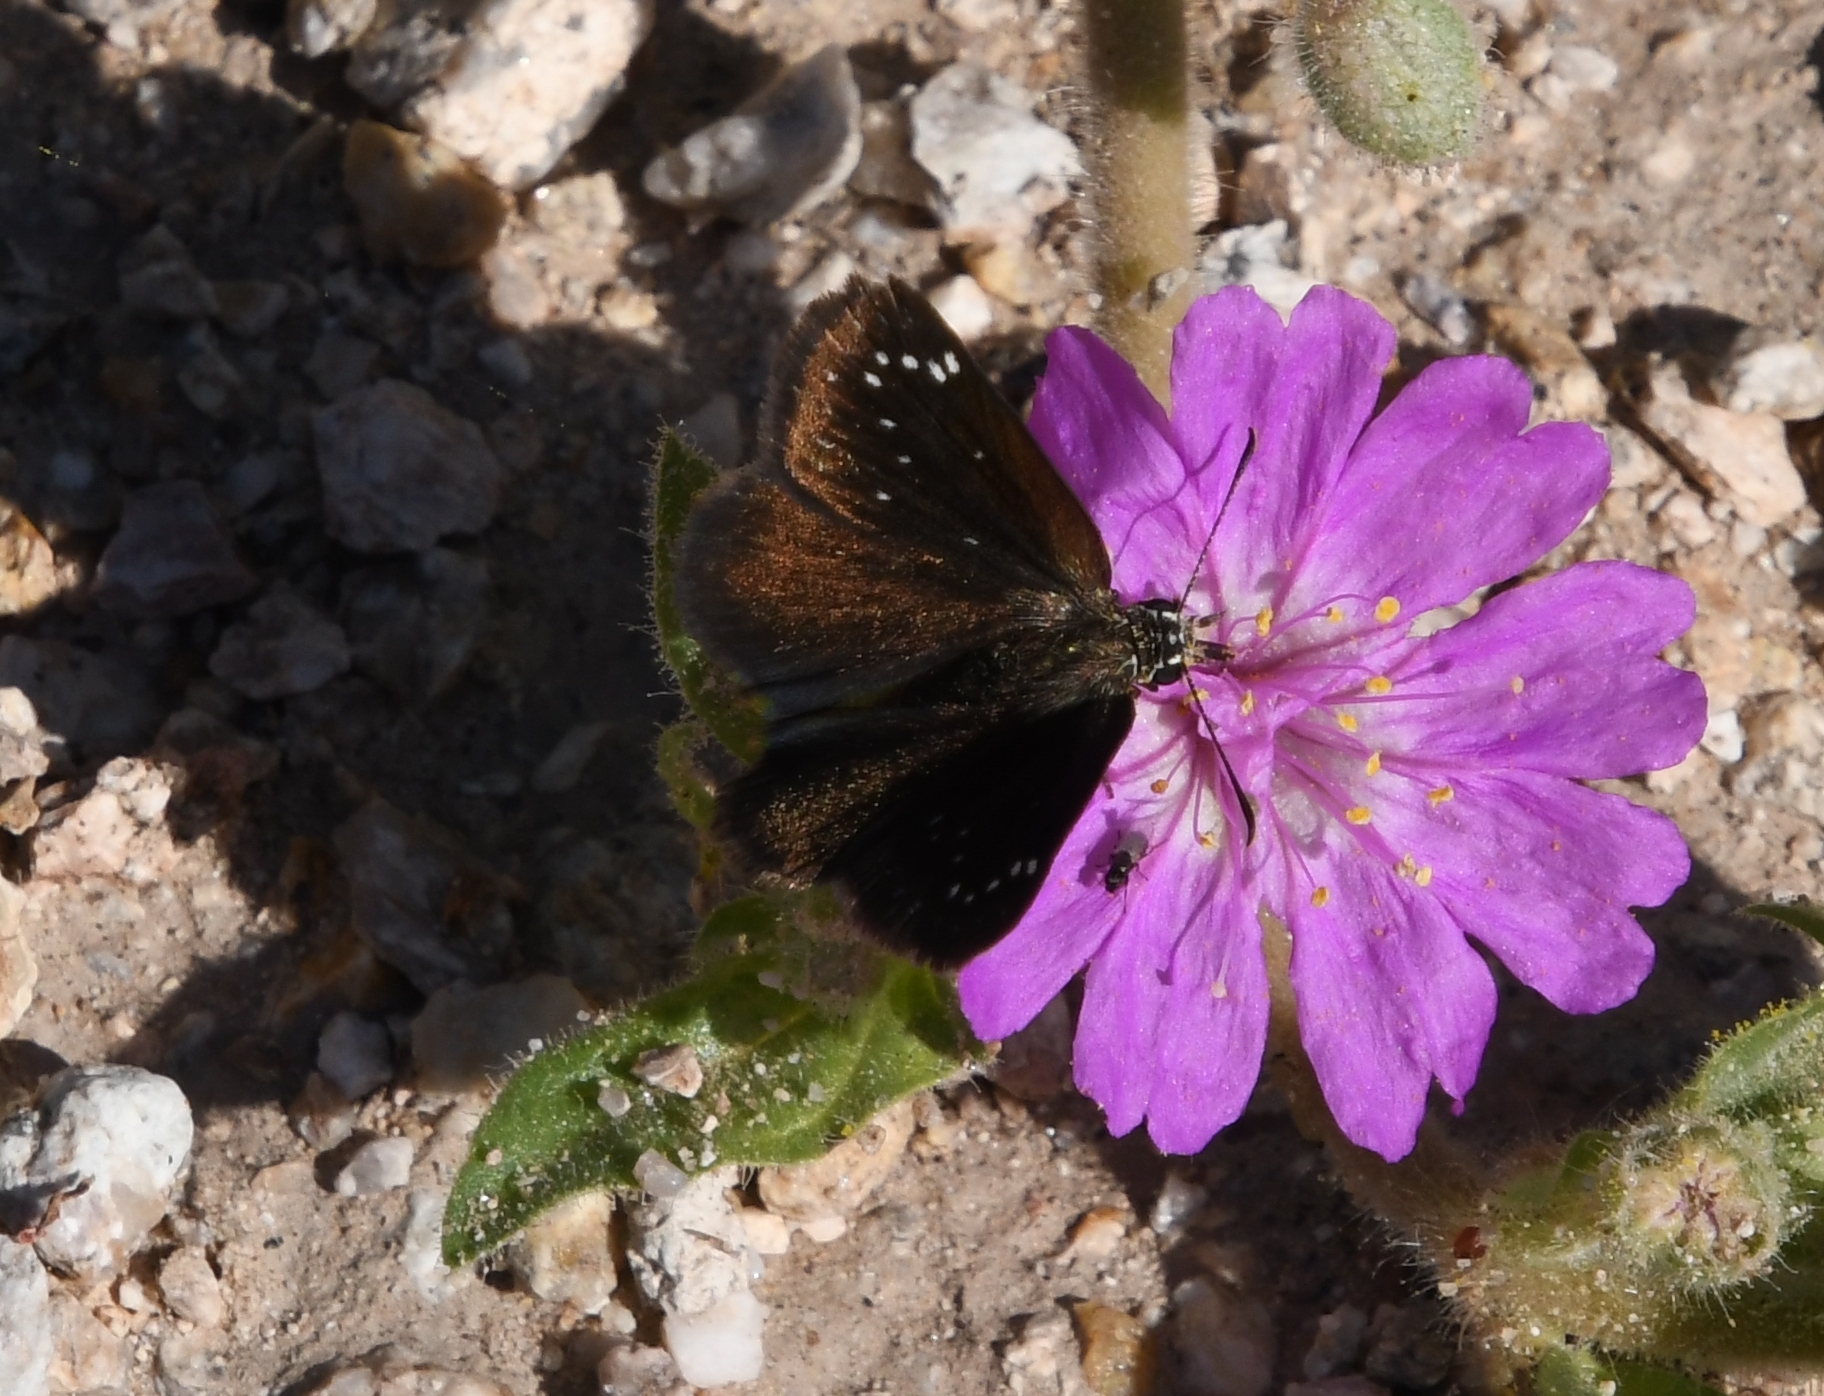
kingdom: Animalia
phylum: Arthropoda
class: Insecta
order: Lepidoptera
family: Hesperiidae
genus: Pholisora
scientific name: Pholisora catullus
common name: Common sootywing
